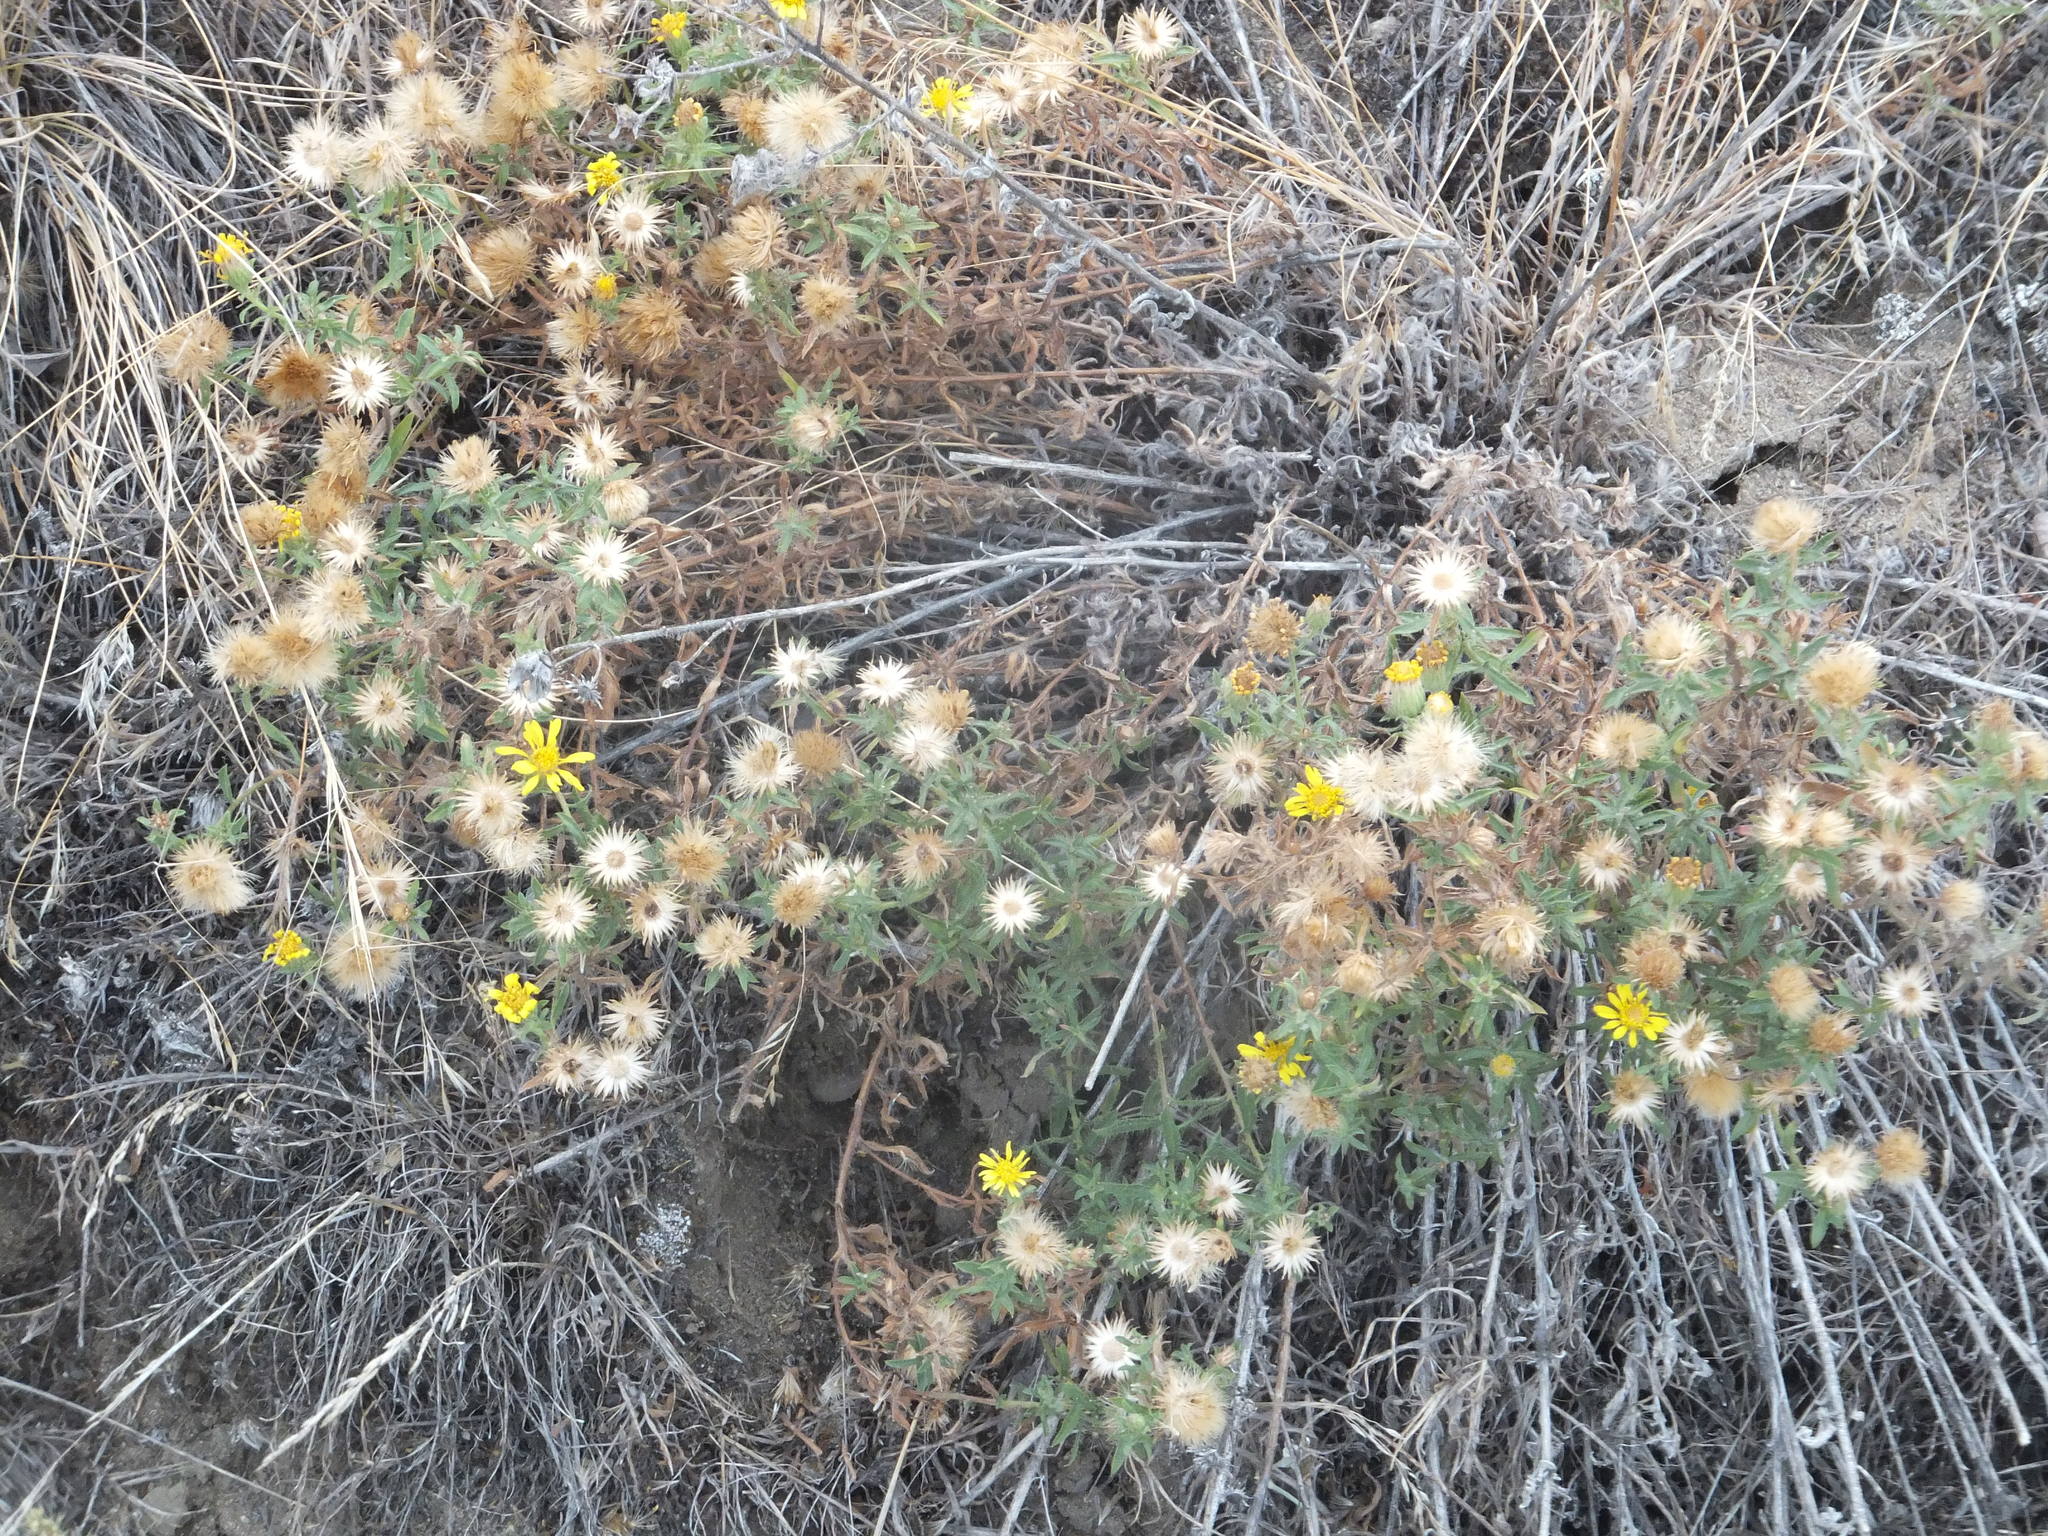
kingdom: Plantae
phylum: Tracheophyta
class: Magnoliopsida
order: Asterales
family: Asteraceae
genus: Heterotheca
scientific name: Heterotheca villosa
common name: Hairy false goldenaster
